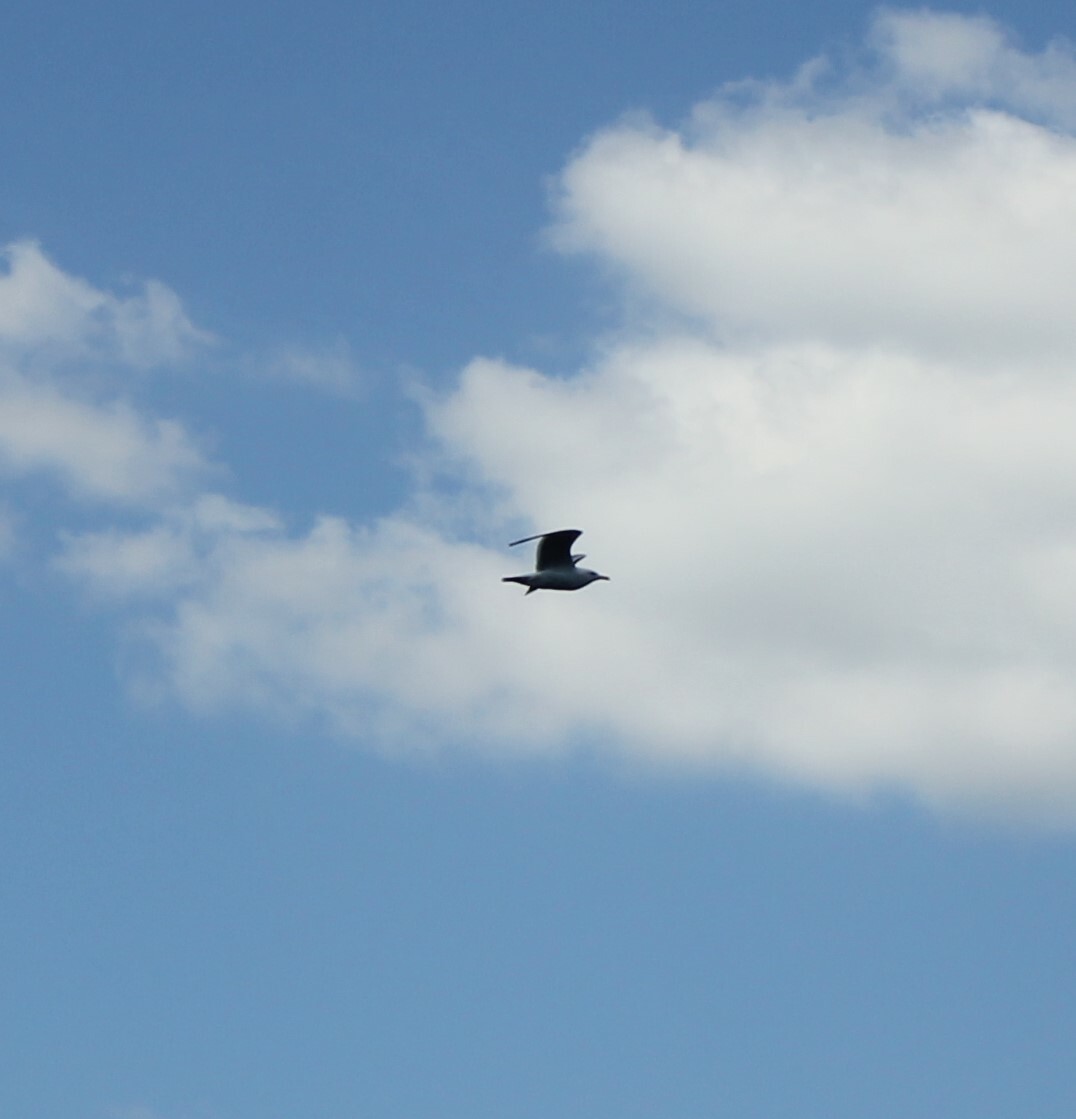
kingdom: Animalia
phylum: Chordata
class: Aves
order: Charadriiformes
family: Laridae
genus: Larus
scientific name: Larus argentatus
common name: Herring gull
